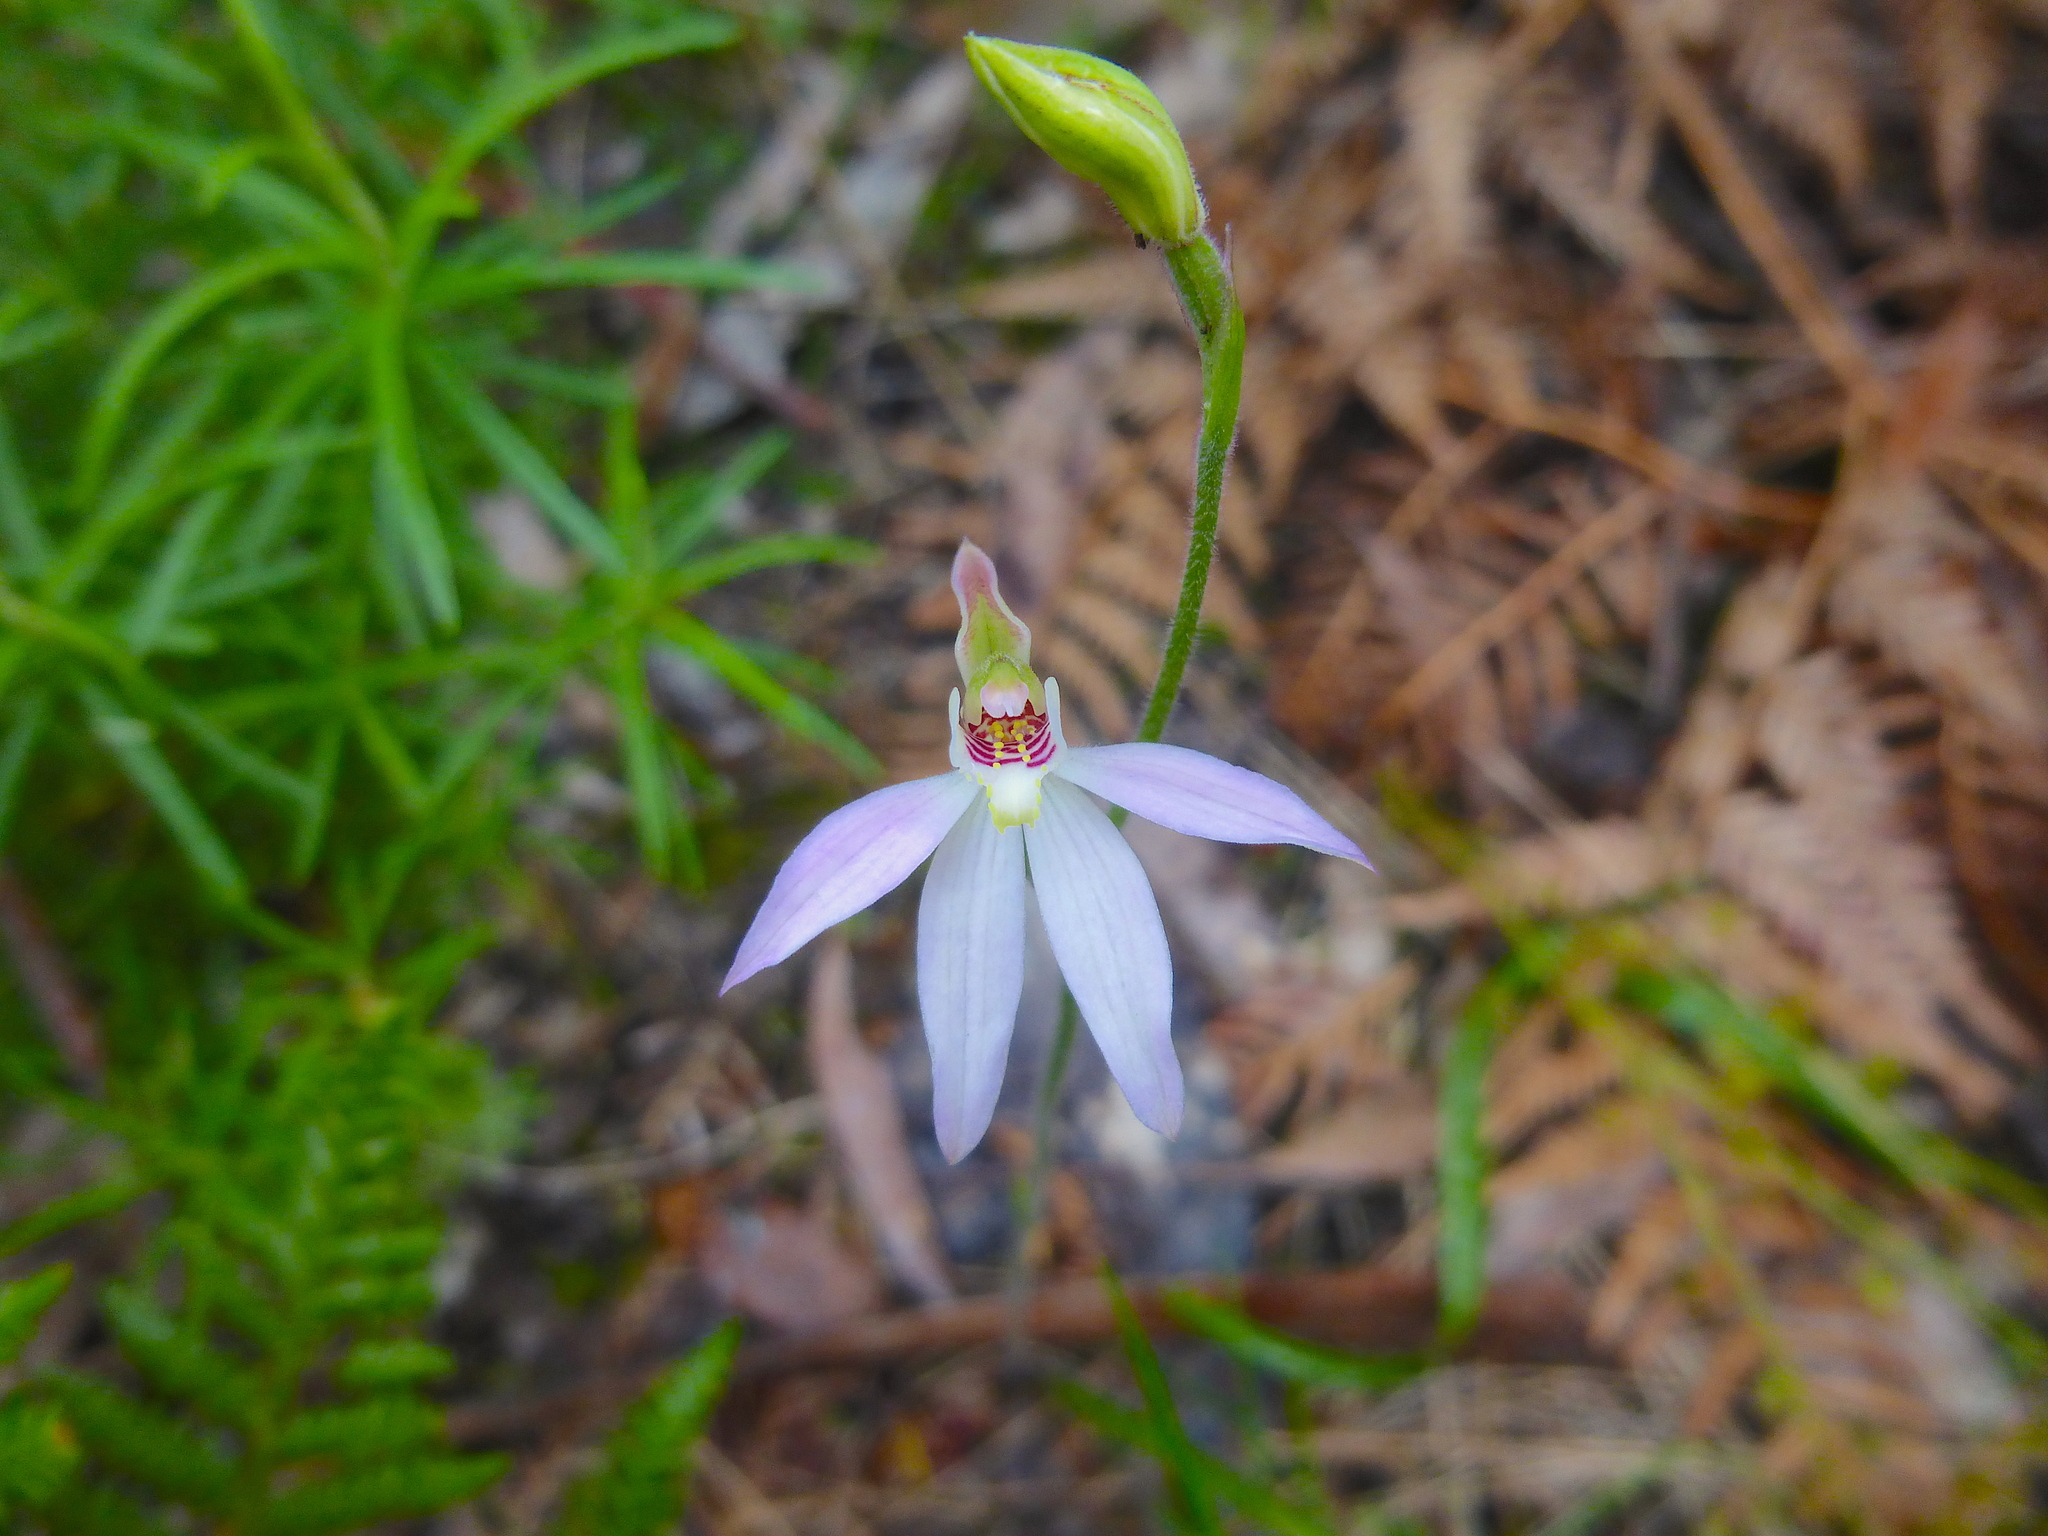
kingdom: Plantae
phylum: Tracheophyta
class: Liliopsida
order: Asparagales
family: Orchidaceae
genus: Caladenia
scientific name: Caladenia carnea
